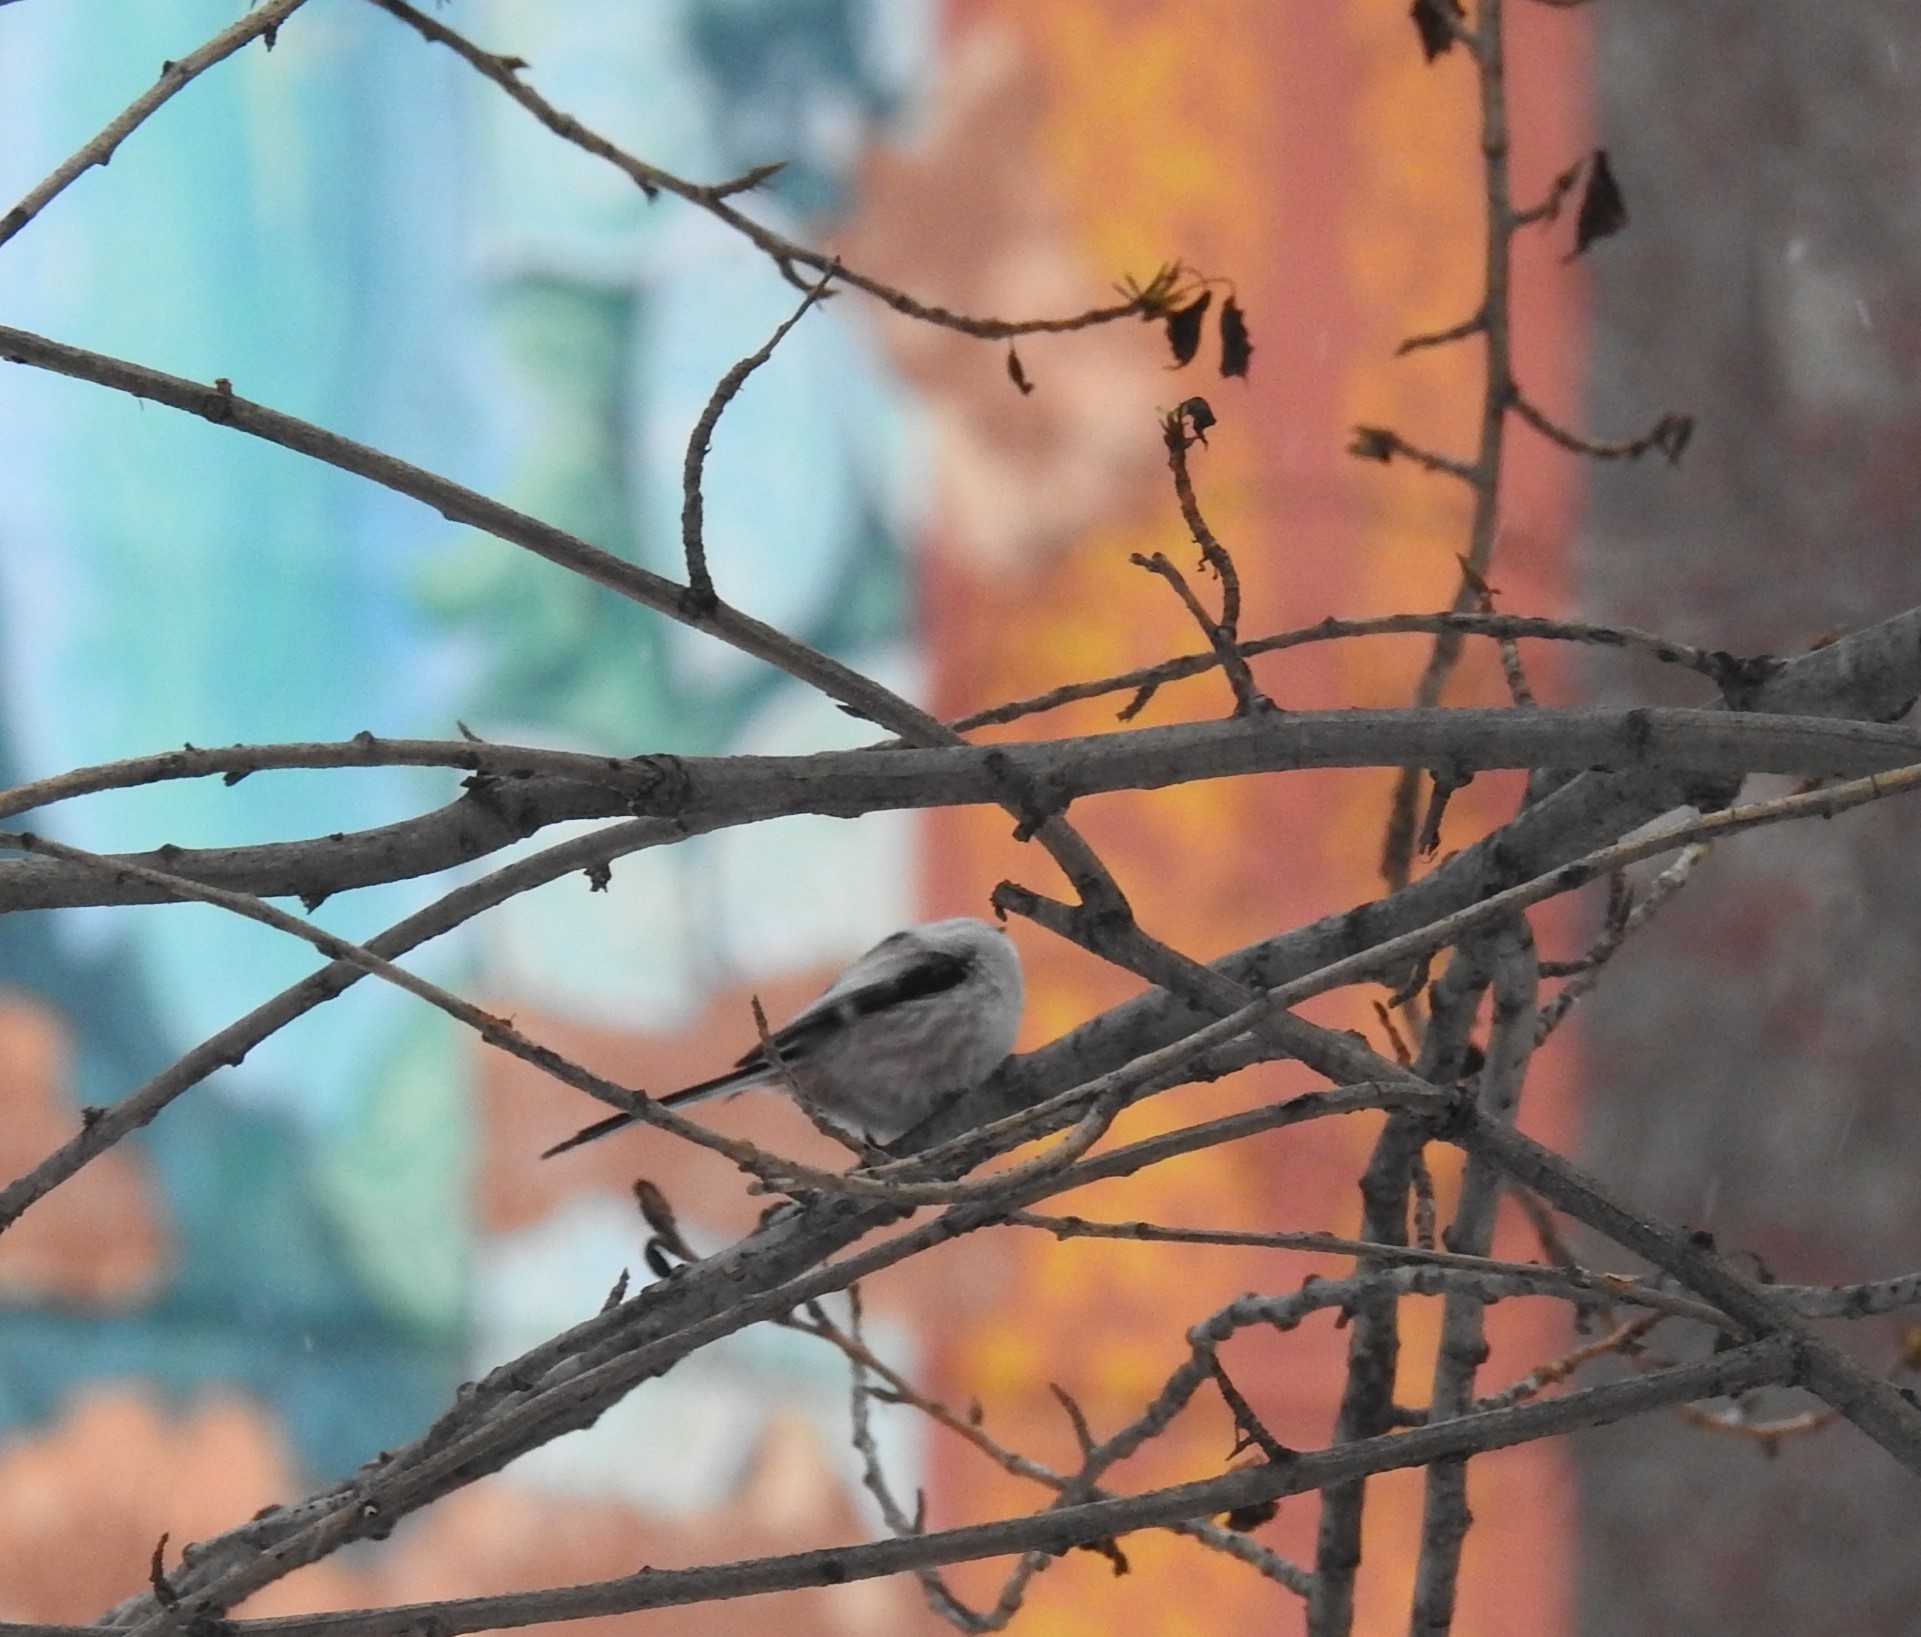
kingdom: Animalia
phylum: Chordata
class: Aves
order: Passeriformes
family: Aegithalidae
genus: Aegithalos
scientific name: Aegithalos caudatus
